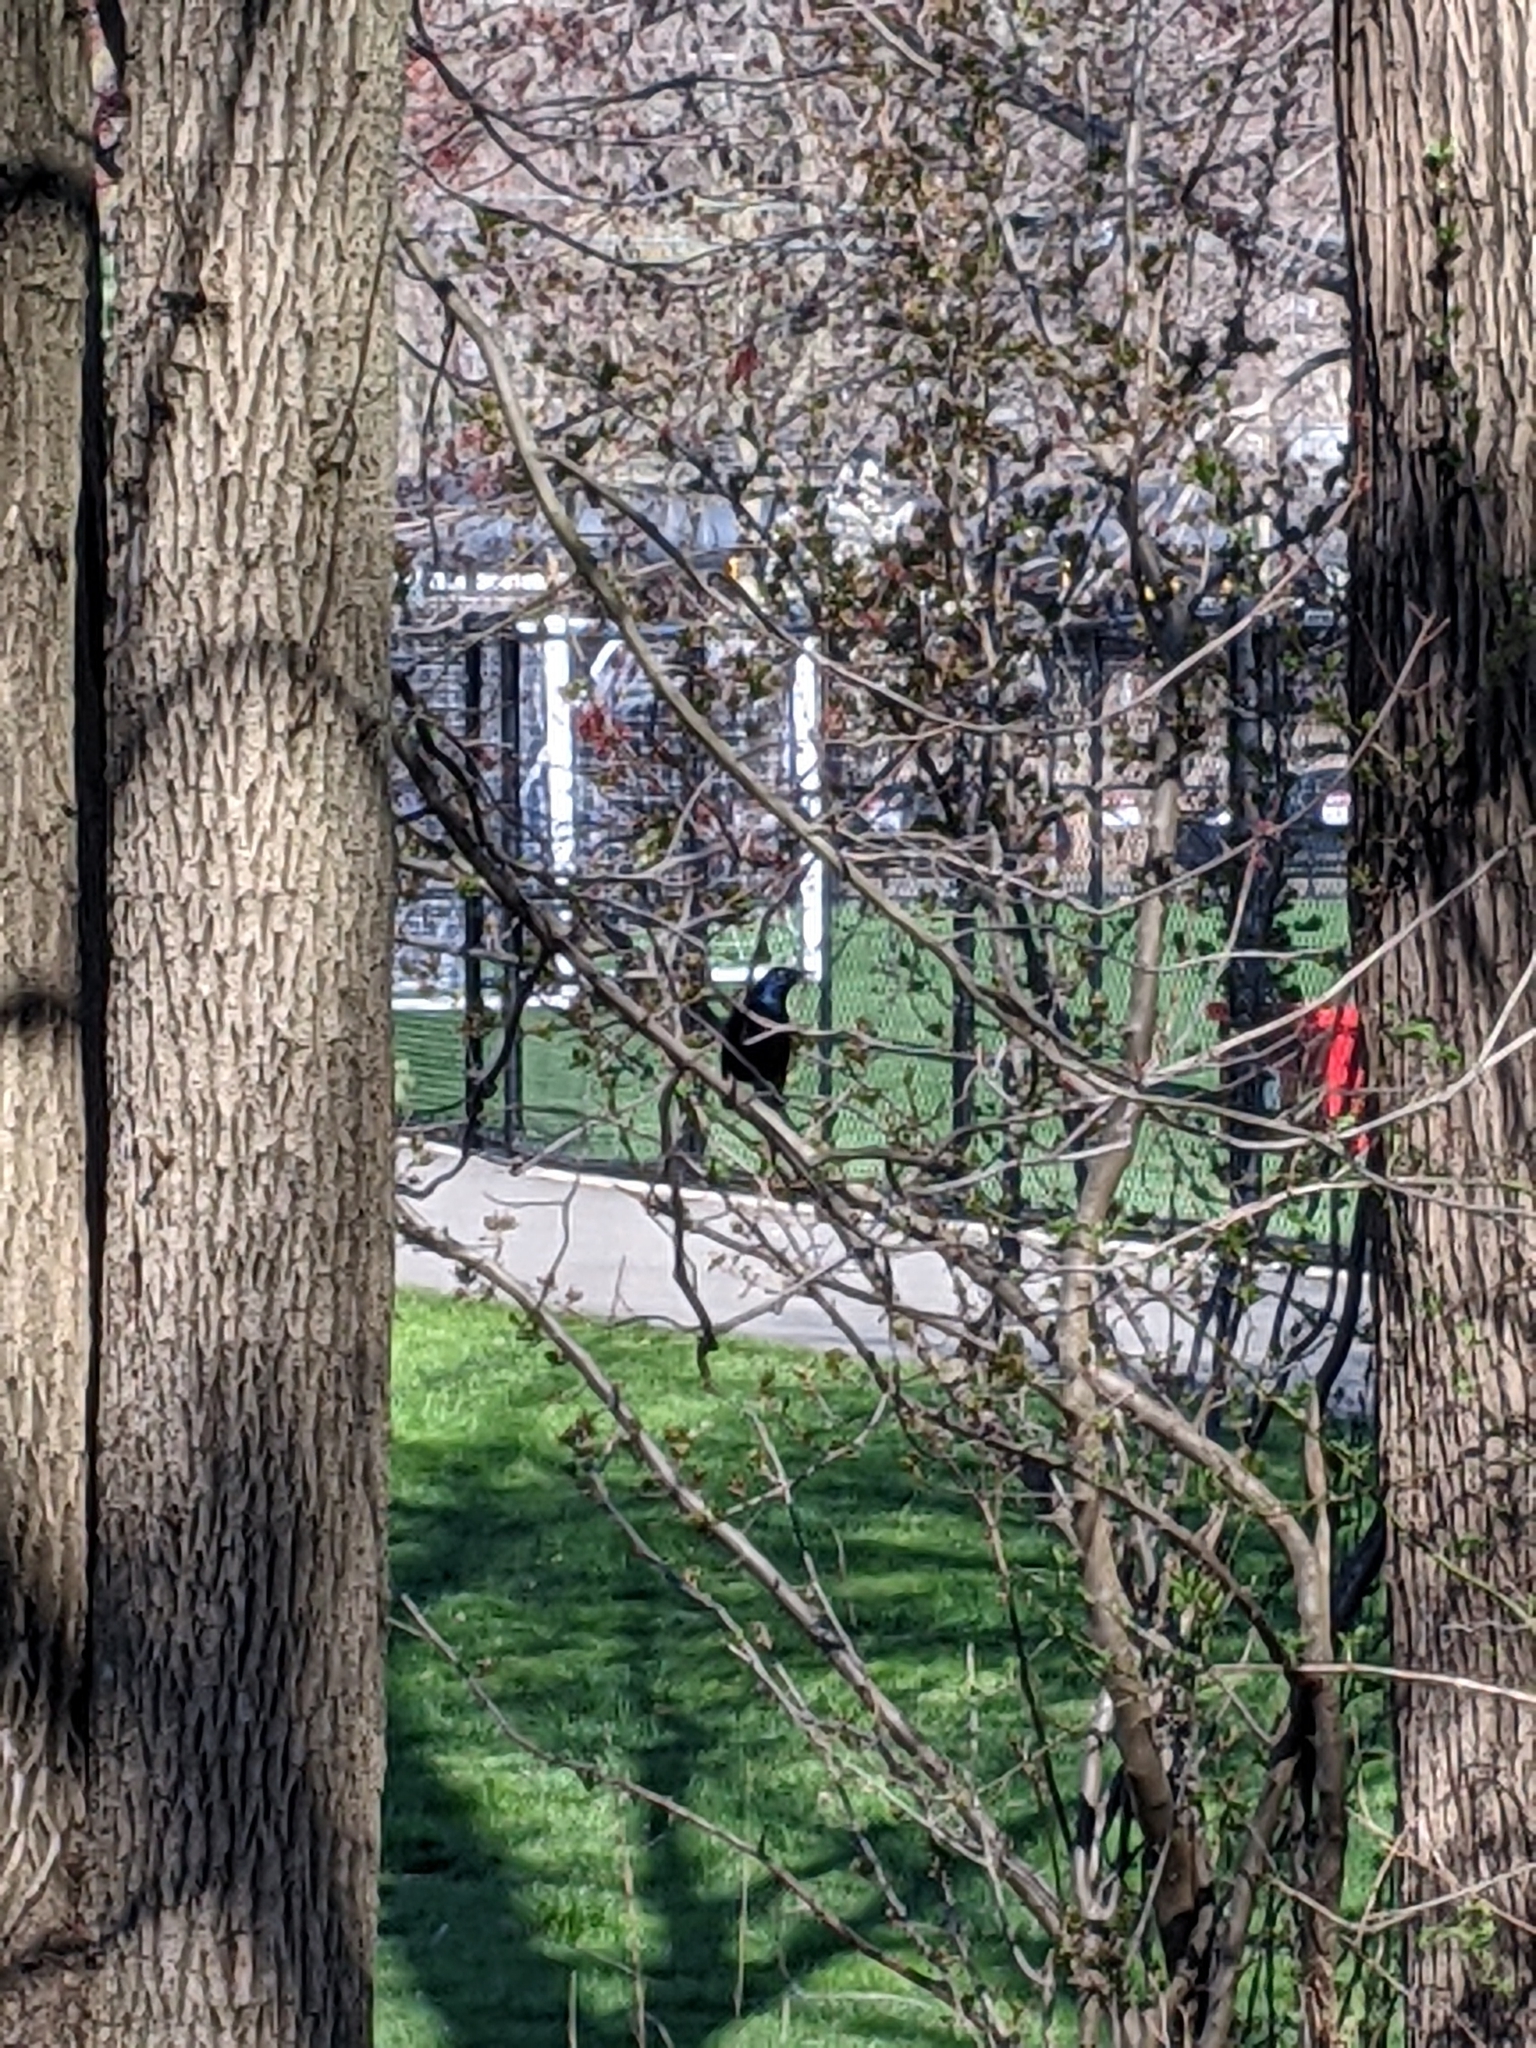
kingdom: Animalia
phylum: Chordata
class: Aves
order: Passeriformes
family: Icteridae
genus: Quiscalus
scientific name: Quiscalus quiscula
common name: Common grackle
